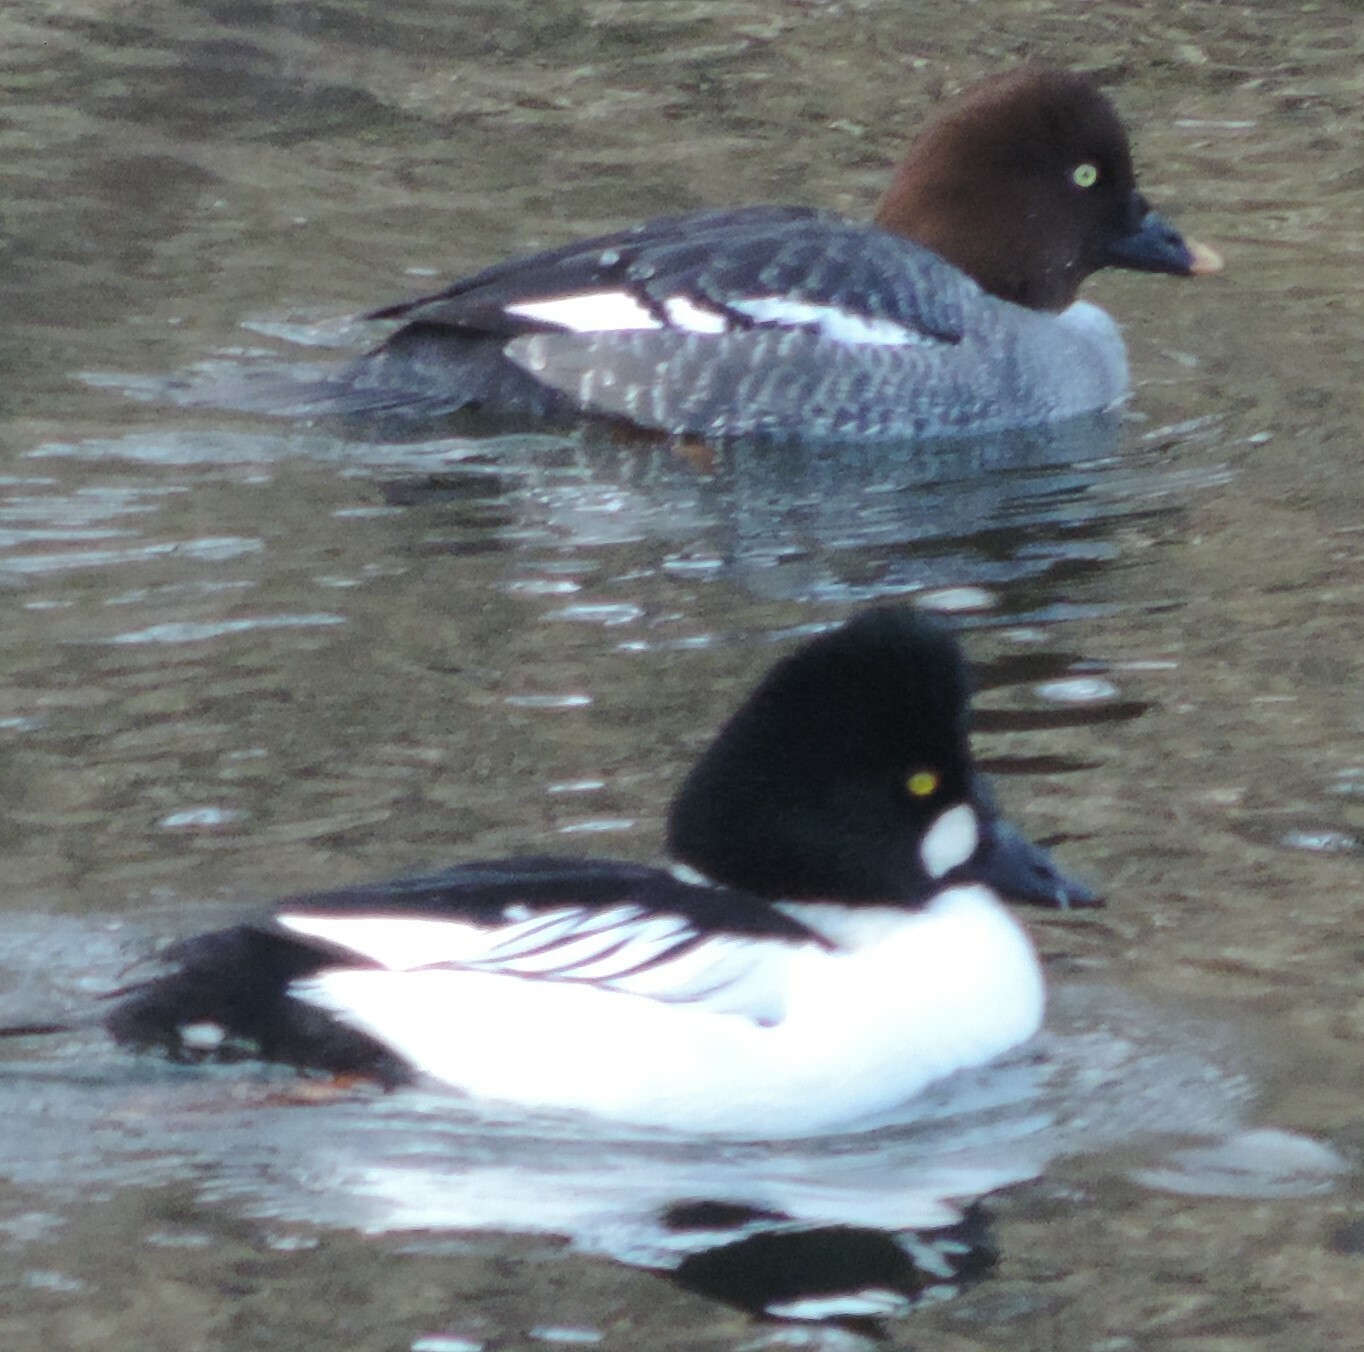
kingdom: Animalia
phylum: Chordata
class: Aves
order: Anseriformes
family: Anatidae
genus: Bucephala
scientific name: Bucephala clangula
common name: Common goldeneye
